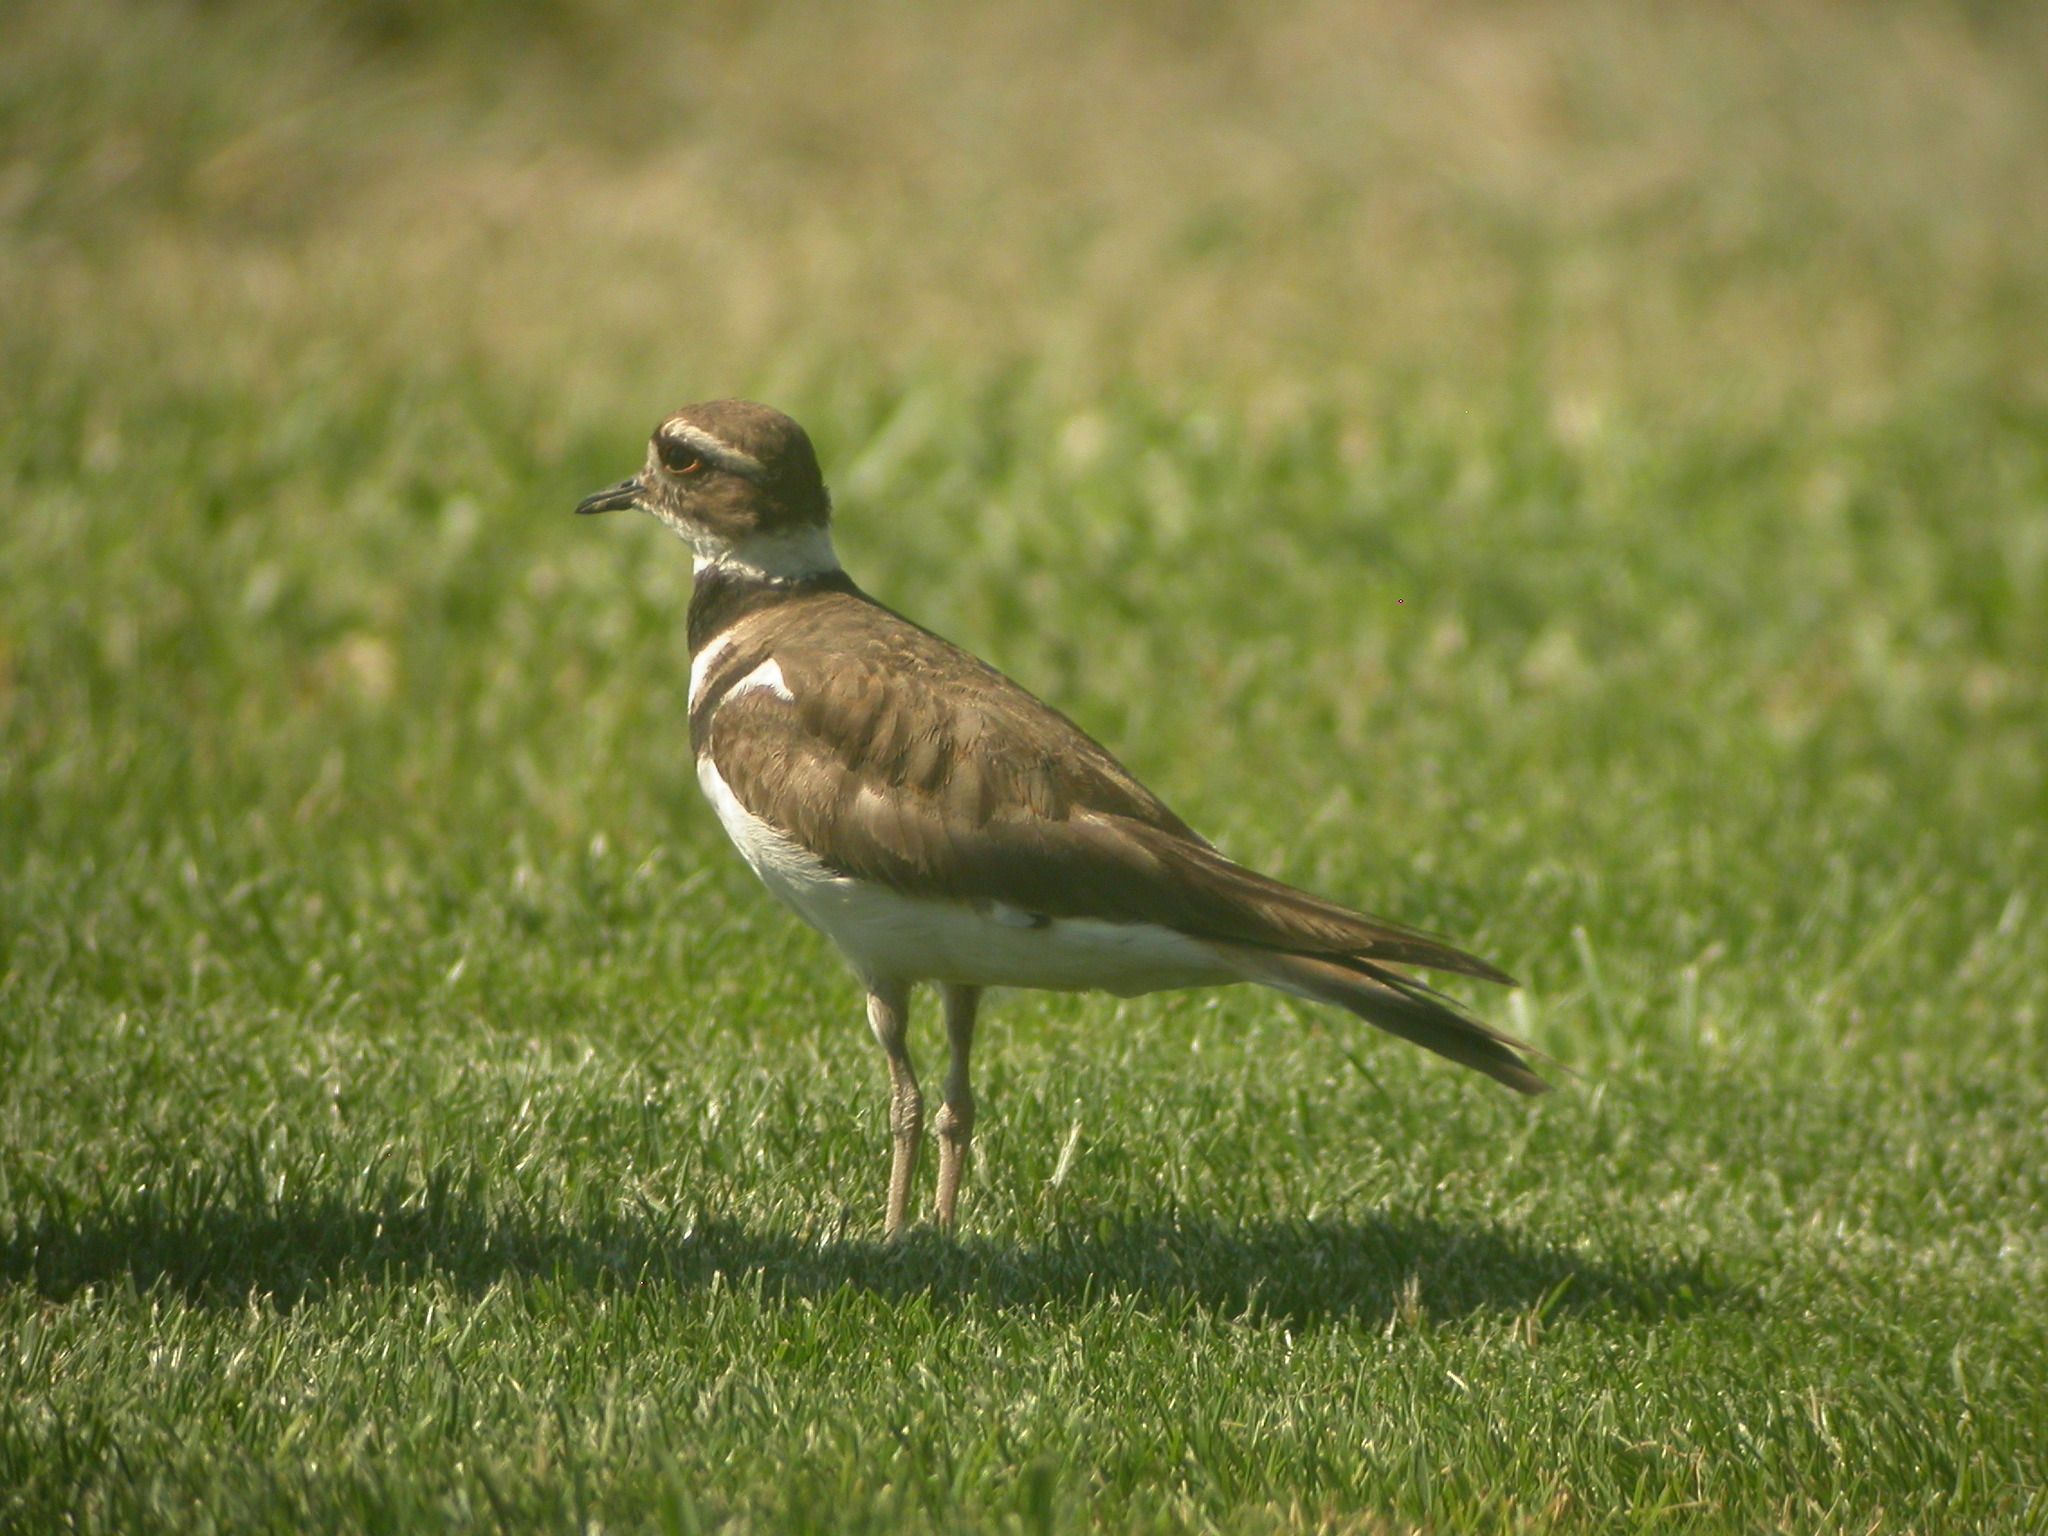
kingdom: Animalia
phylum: Chordata
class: Aves
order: Charadriiformes
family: Charadriidae
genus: Charadrius
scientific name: Charadrius vociferus
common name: Killdeer
